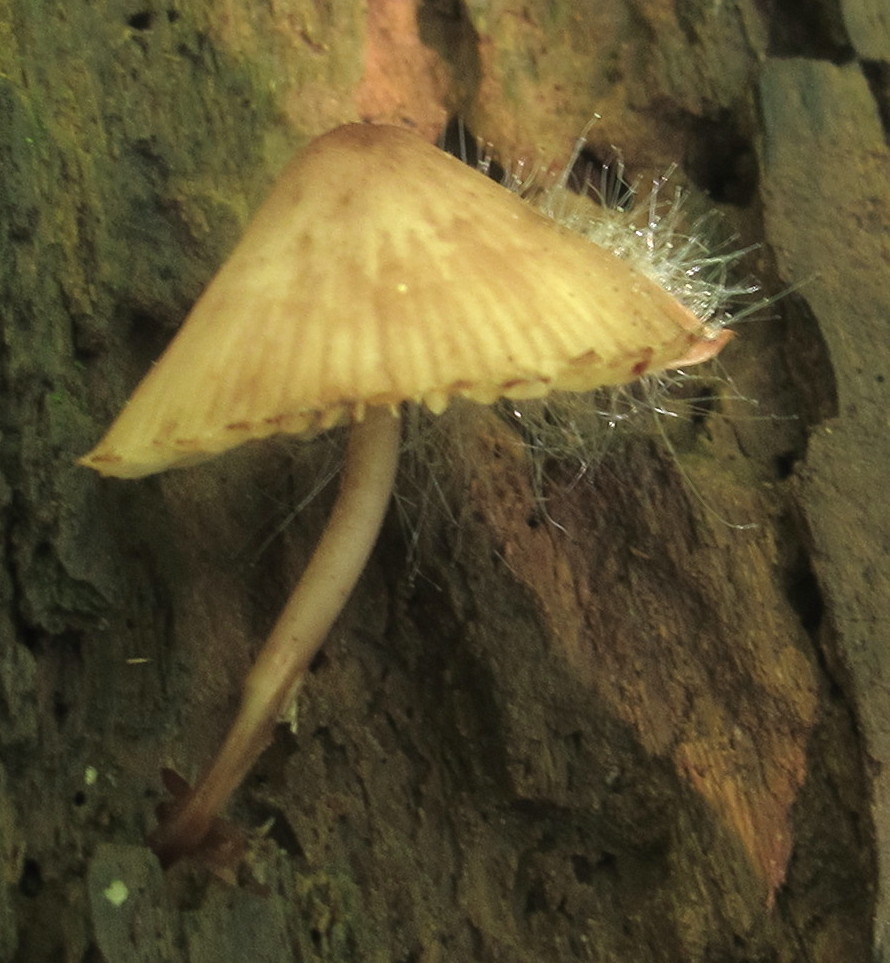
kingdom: Fungi
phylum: Mucoromycota
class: Mucoromycetes
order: Mucorales
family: Phycomycetaceae
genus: Spinellus
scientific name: Spinellus fusiger
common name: Bonnet mould
